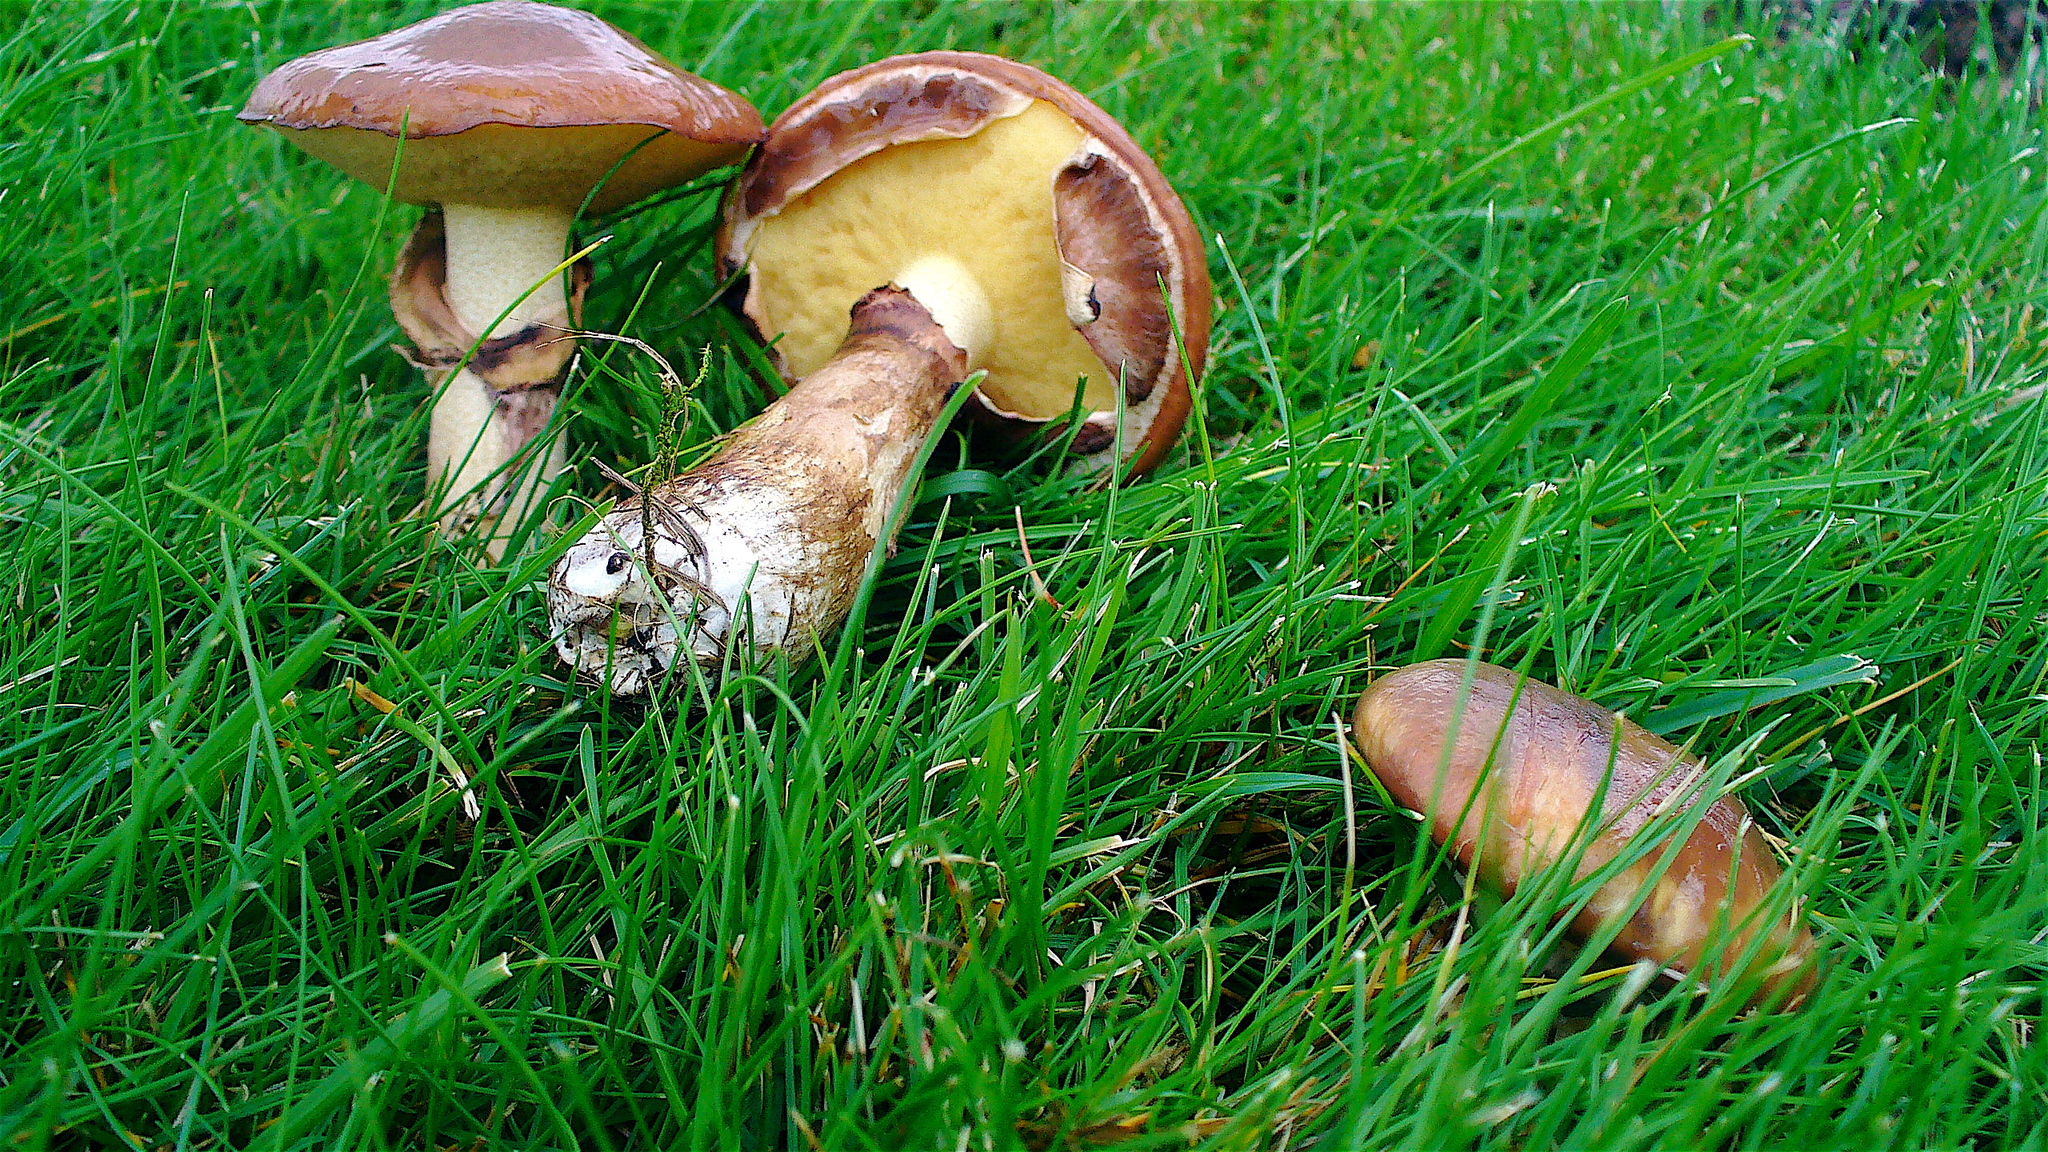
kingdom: Fungi
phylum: Basidiomycota
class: Agaricomycetes
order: Boletales
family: Suillaceae
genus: Suillus
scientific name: Suillus luteus
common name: Slippery jack
